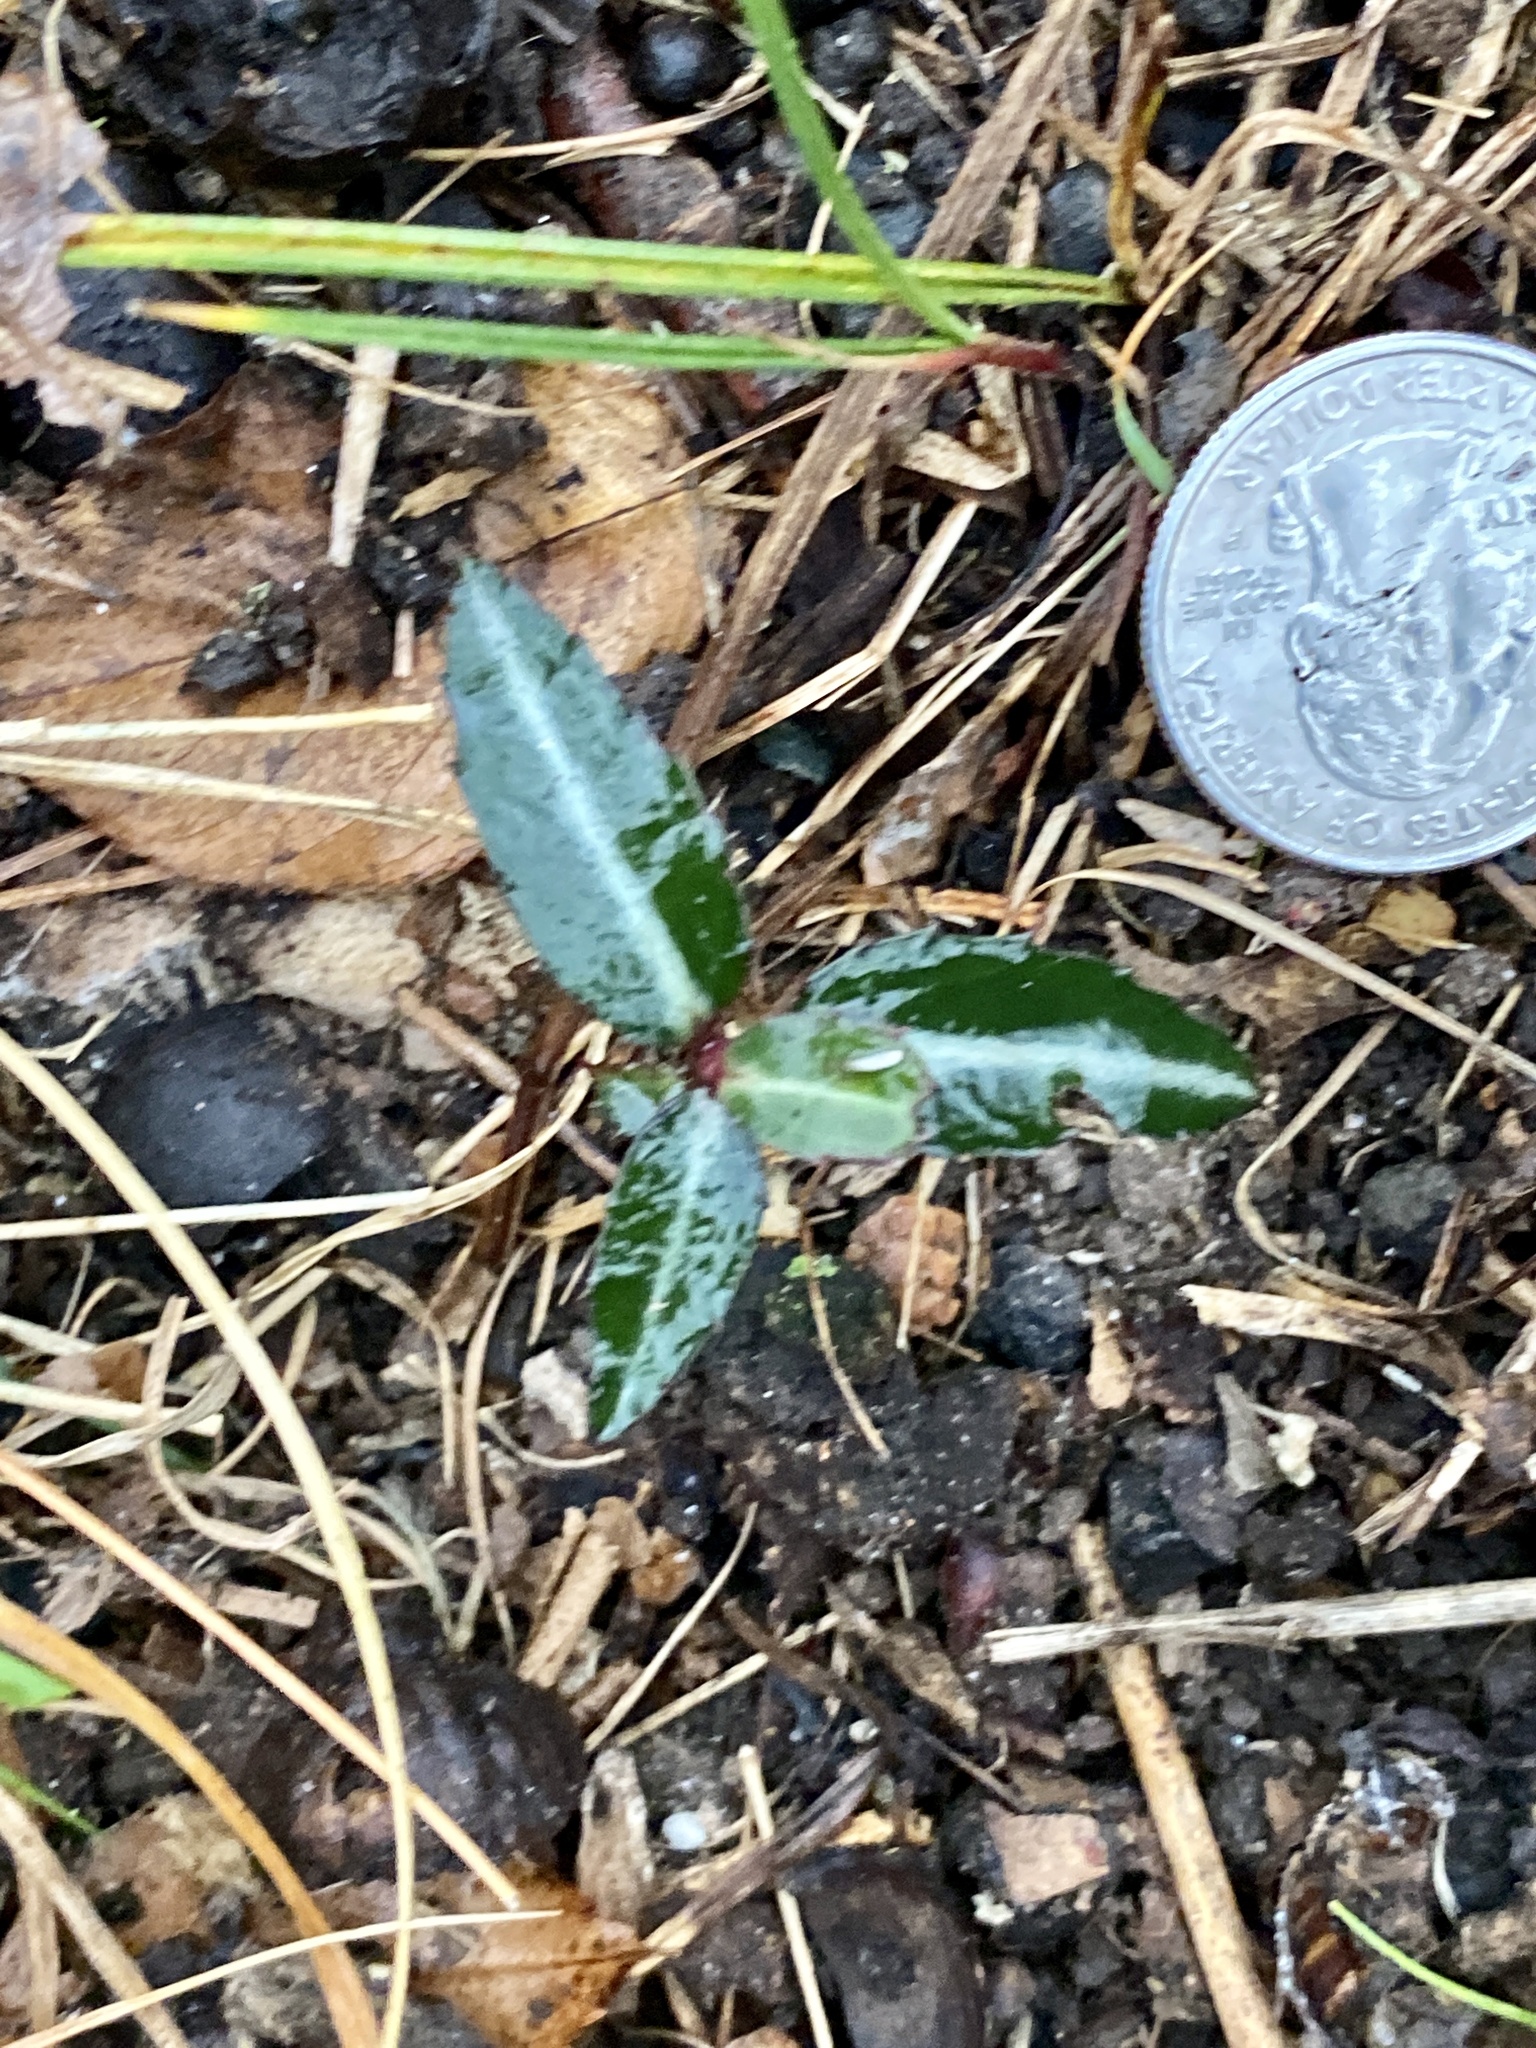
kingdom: Plantae
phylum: Tracheophyta
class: Magnoliopsida
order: Ericales
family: Ericaceae
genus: Chimaphila
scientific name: Chimaphila maculata
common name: Spotted pipsissewa
